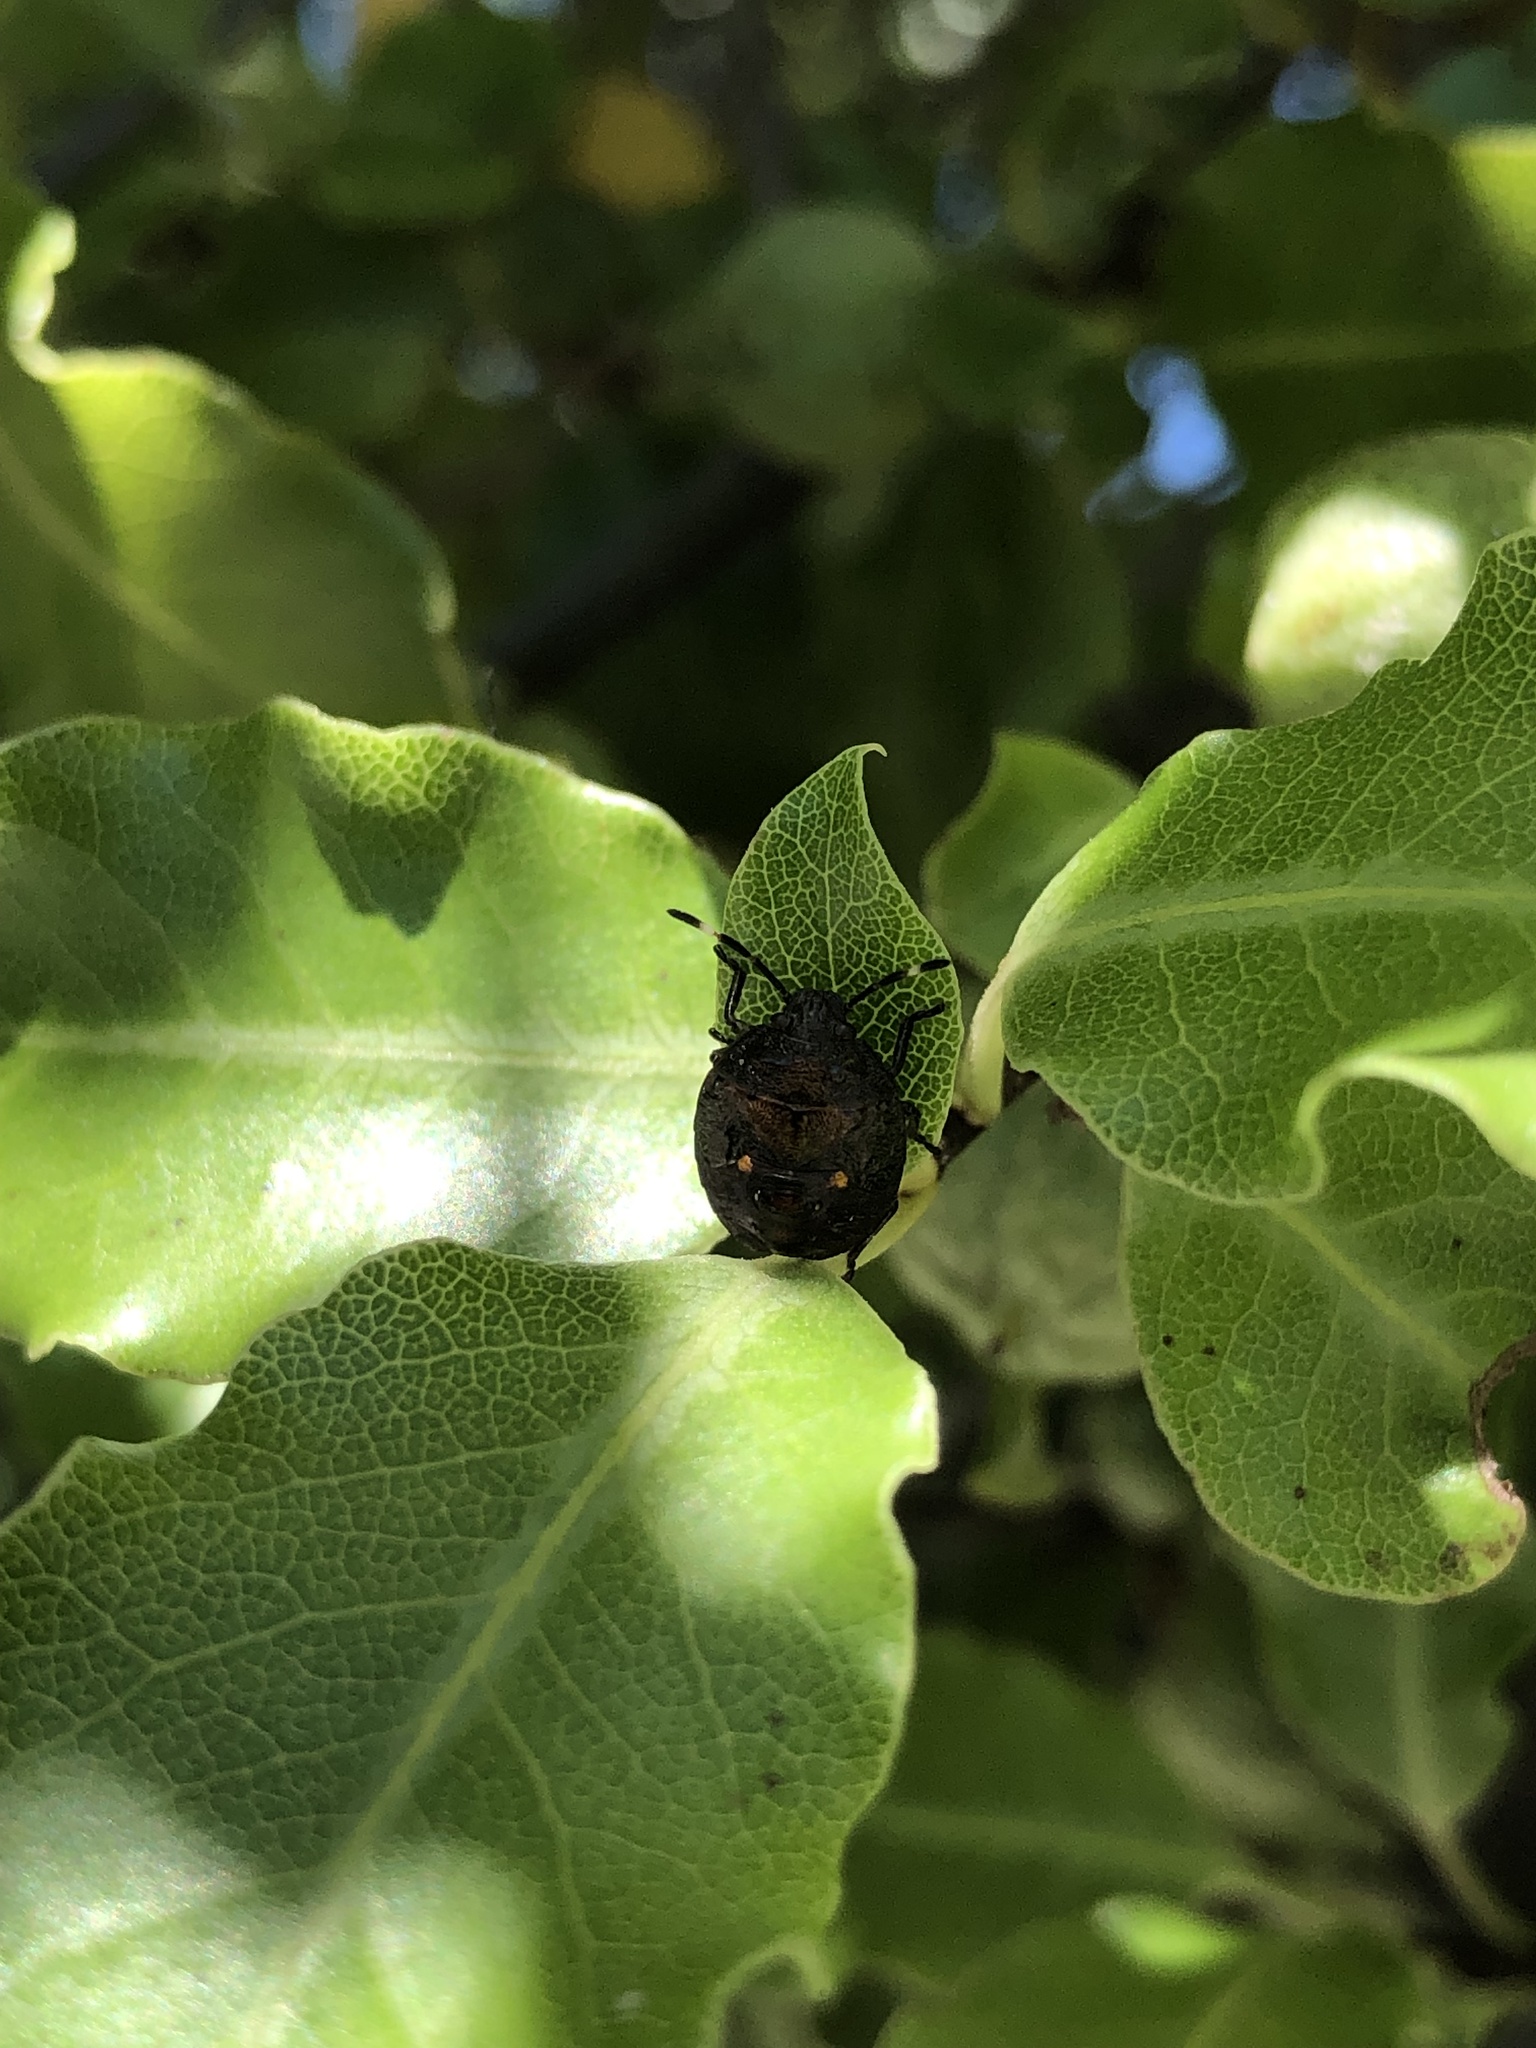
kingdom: Animalia
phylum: Arthropoda
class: Insecta
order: Hemiptera
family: Pentatomidae
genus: Monteithiella
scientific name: Monteithiella
